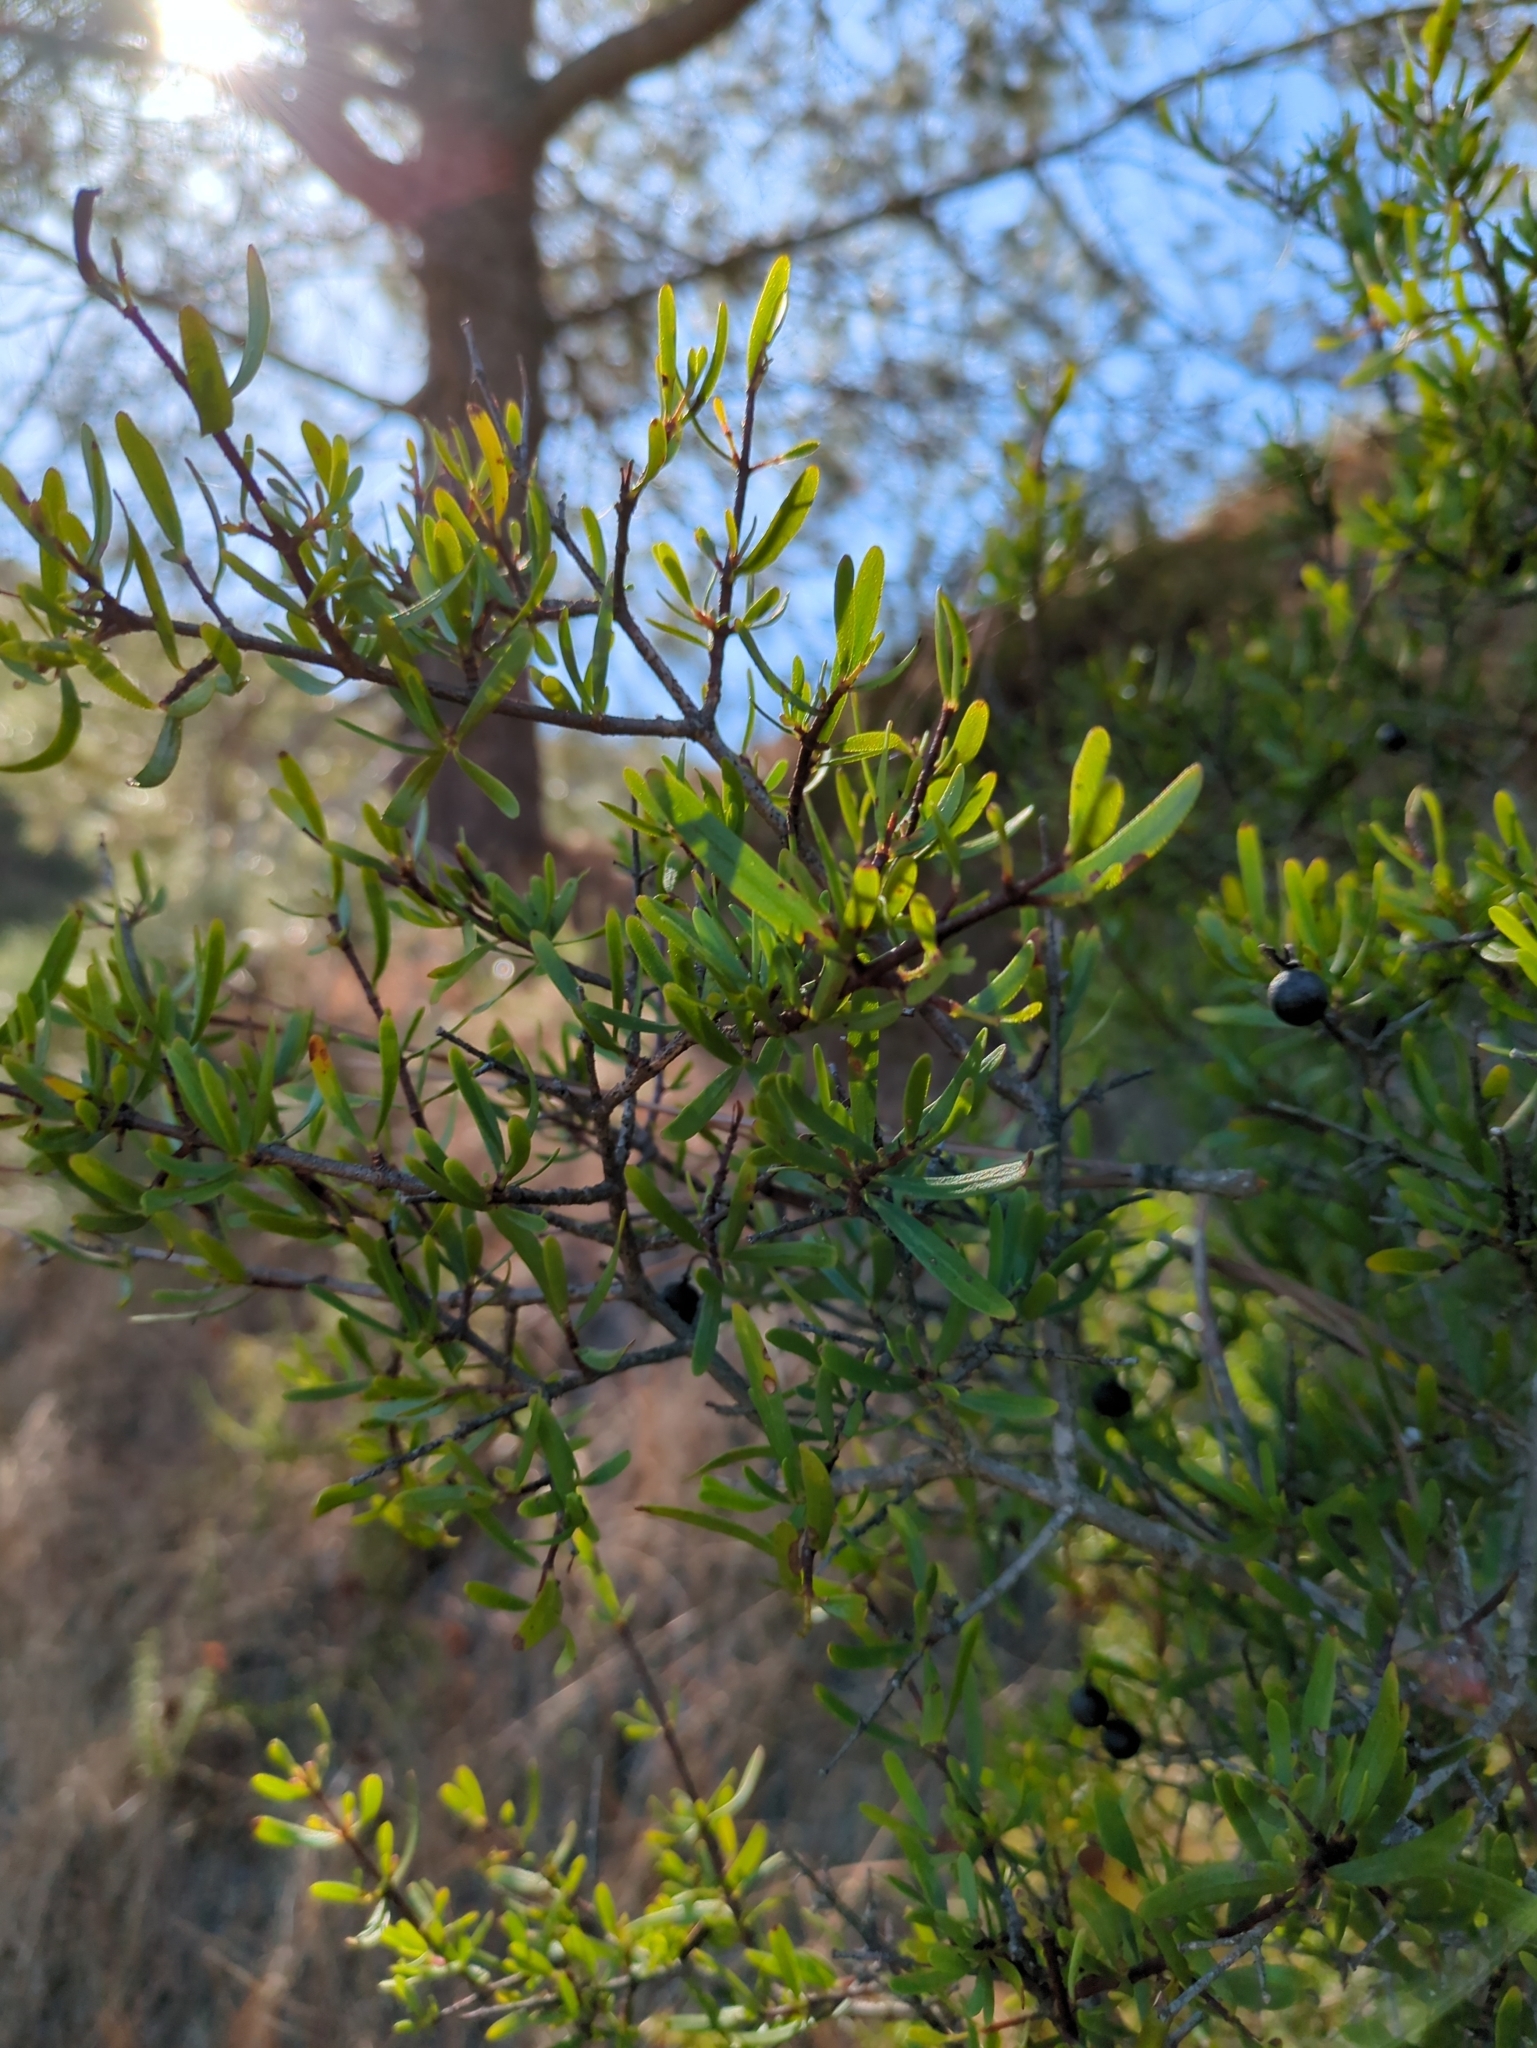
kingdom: Plantae
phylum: Tracheophyta
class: Magnoliopsida
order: Sapindales
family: Rutaceae
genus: Cneoridium
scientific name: Cneoridium dumosum
